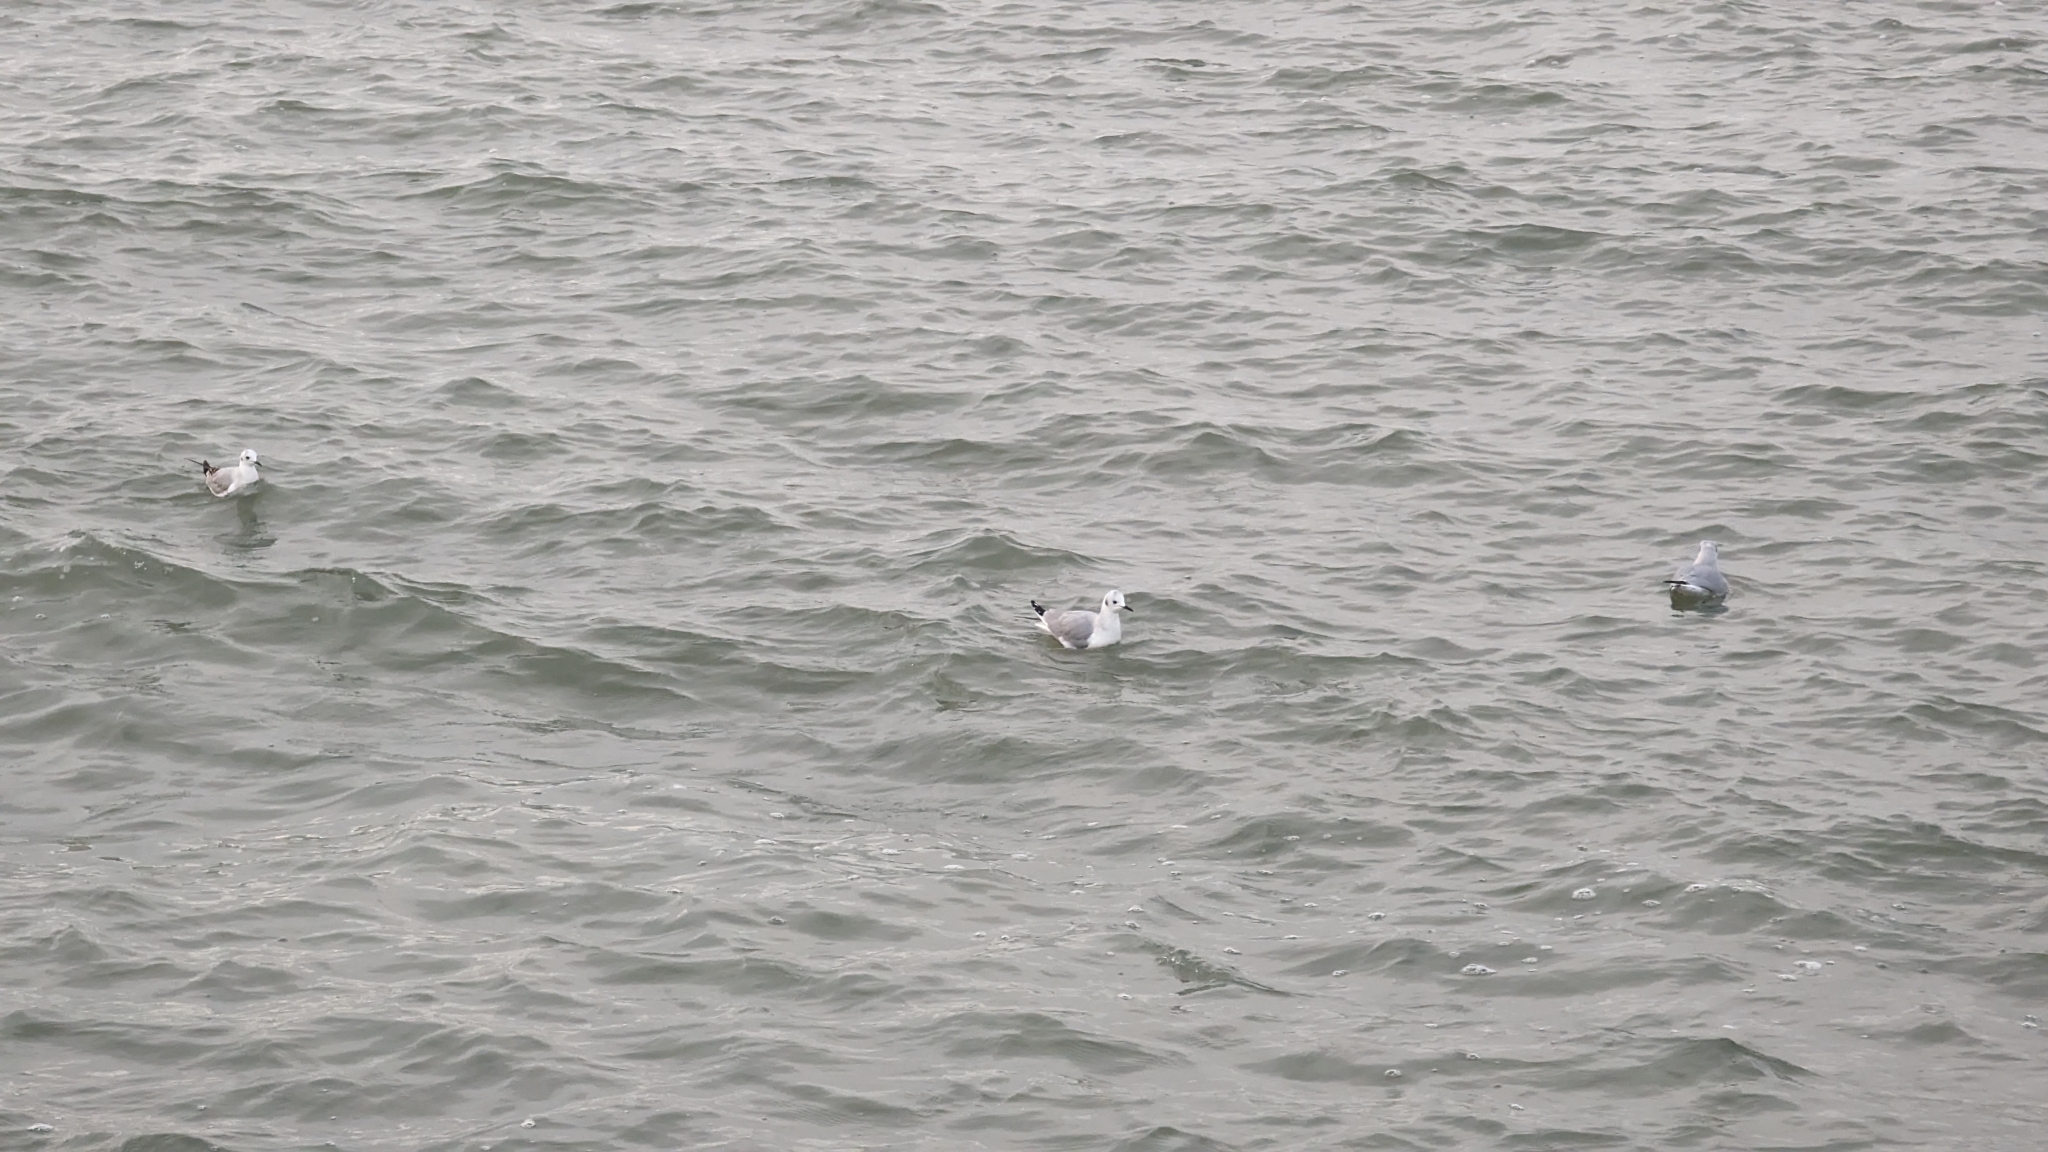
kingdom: Animalia
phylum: Chordata
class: Aves
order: Charadriiformes
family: Laridae
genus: Chroicocephalus
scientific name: Chroicocephalus philadelphia
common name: Bonaparte's gull
